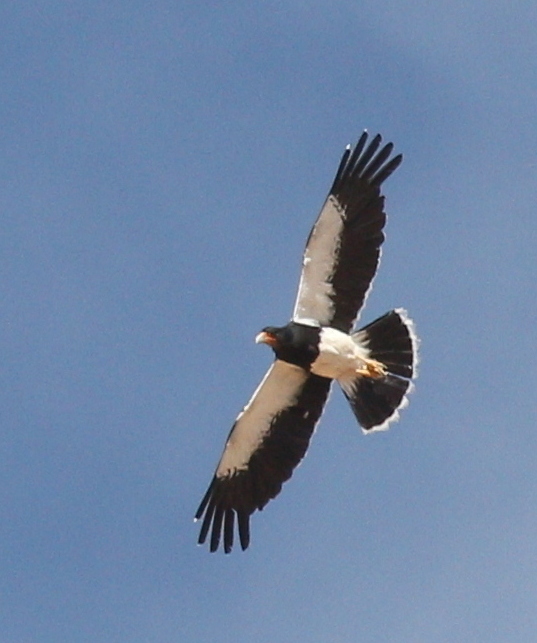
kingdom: Animalia
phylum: Chordata
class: Aves
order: Falconiformes
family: Falconidae
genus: Daptrius
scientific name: Daptrius
